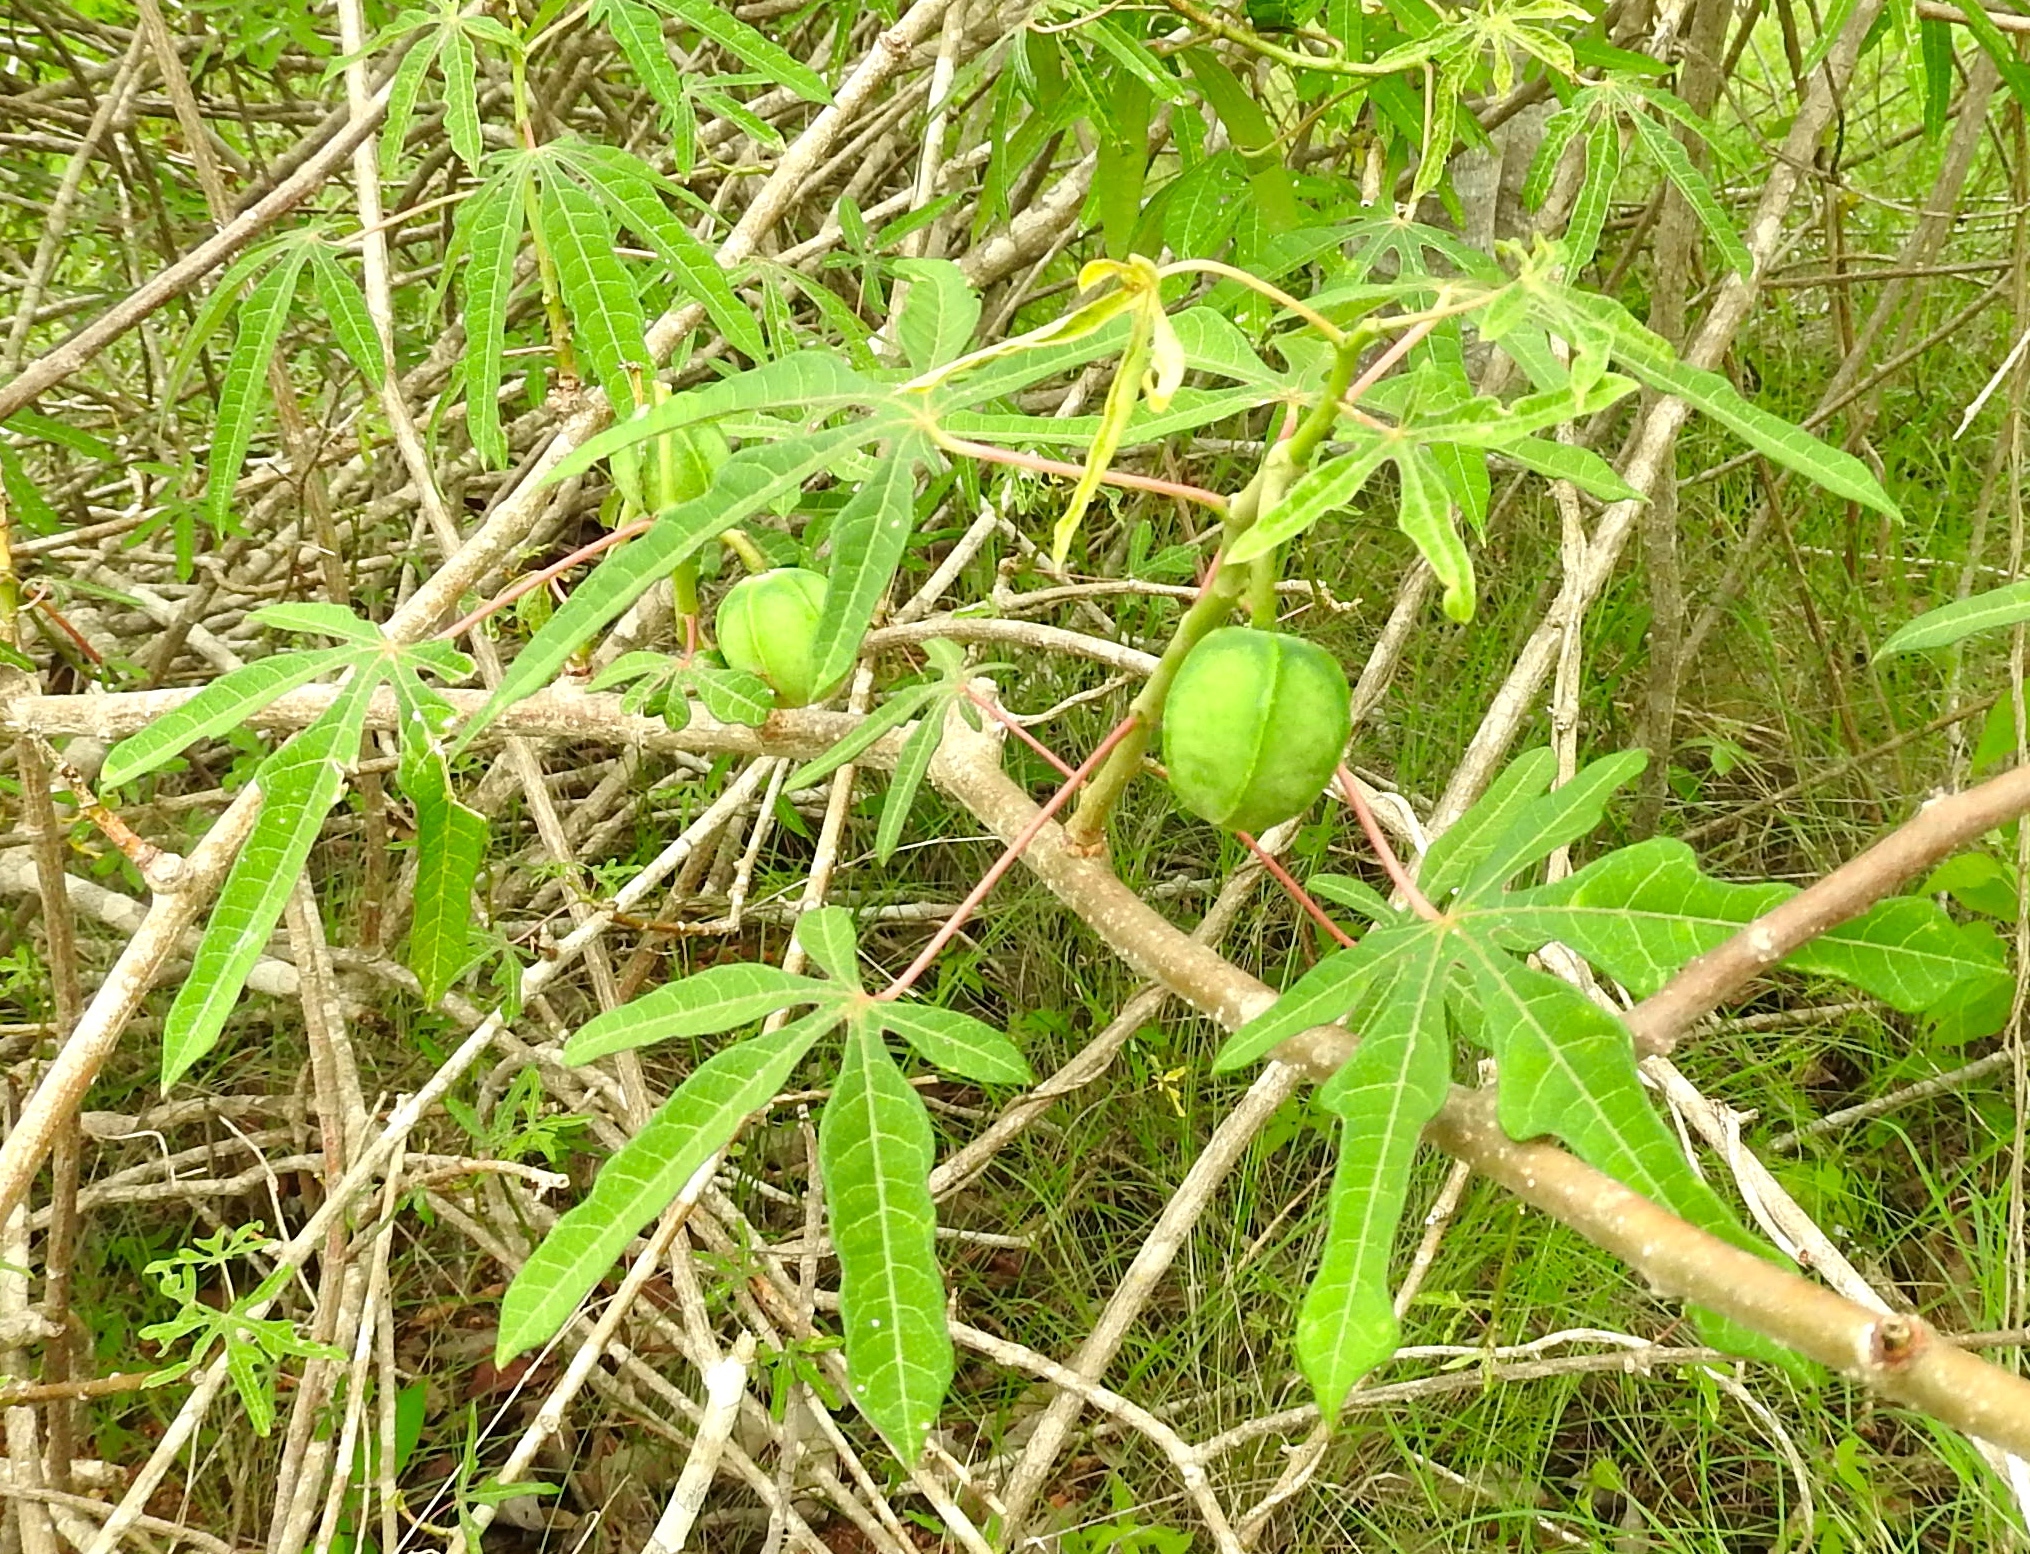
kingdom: Plantae
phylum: Tracheophyta
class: Magnoliopsida
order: Malpighiales
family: Euphorbiaceae
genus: Manihot
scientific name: Manihot esculenta
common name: Cassava
